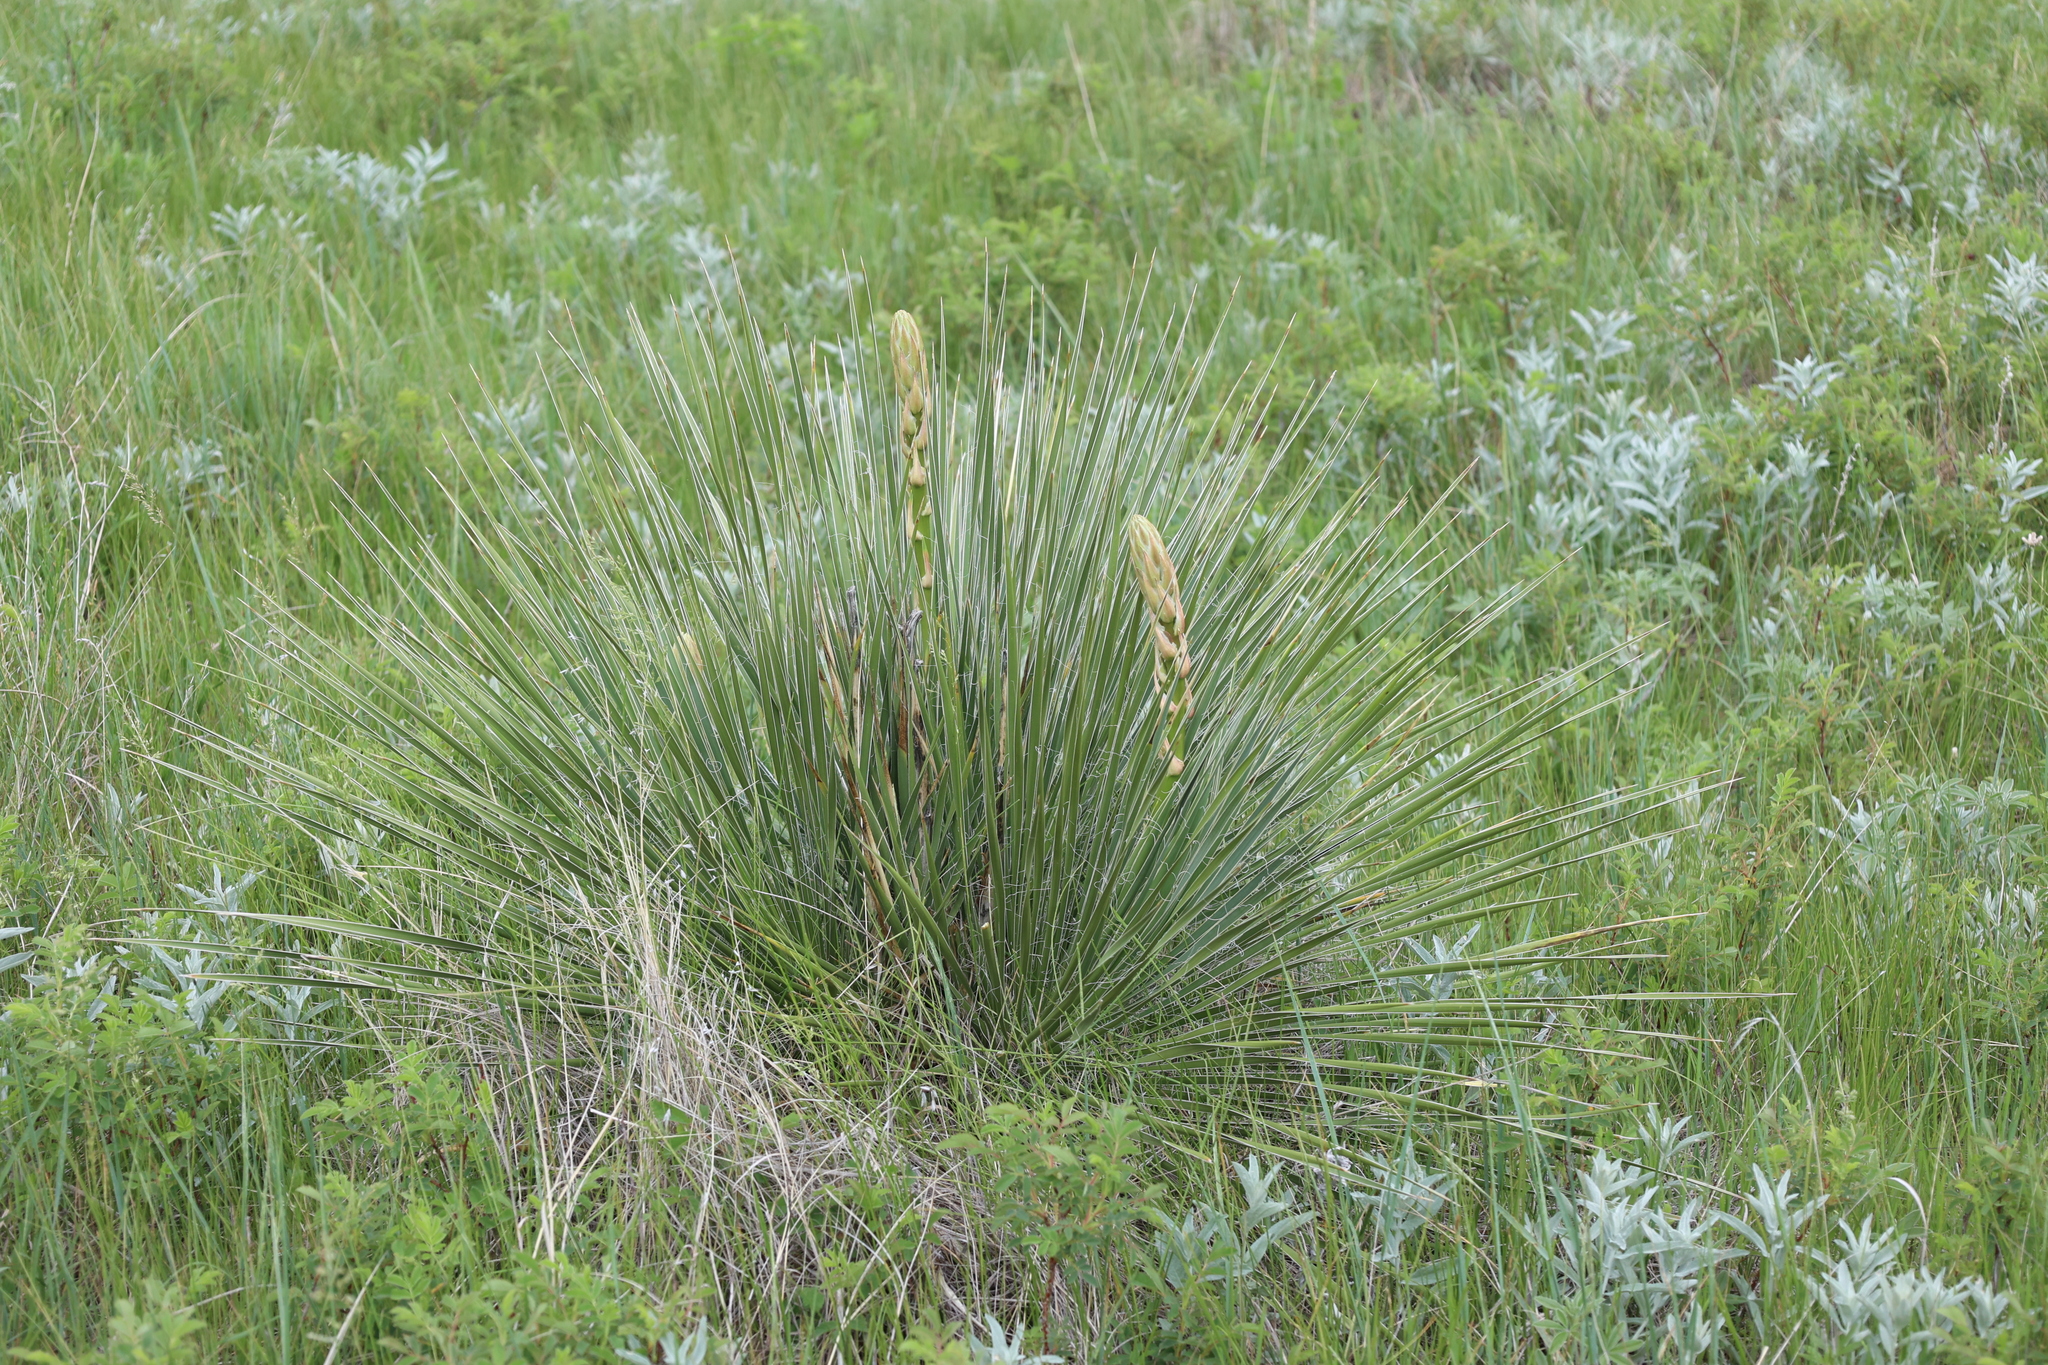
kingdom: Plantae
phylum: Tracheophyta
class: Liliopsida
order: Asparagales
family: Asparagaceae
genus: Yucca
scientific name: Yucca glauca
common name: Great plains yucca
